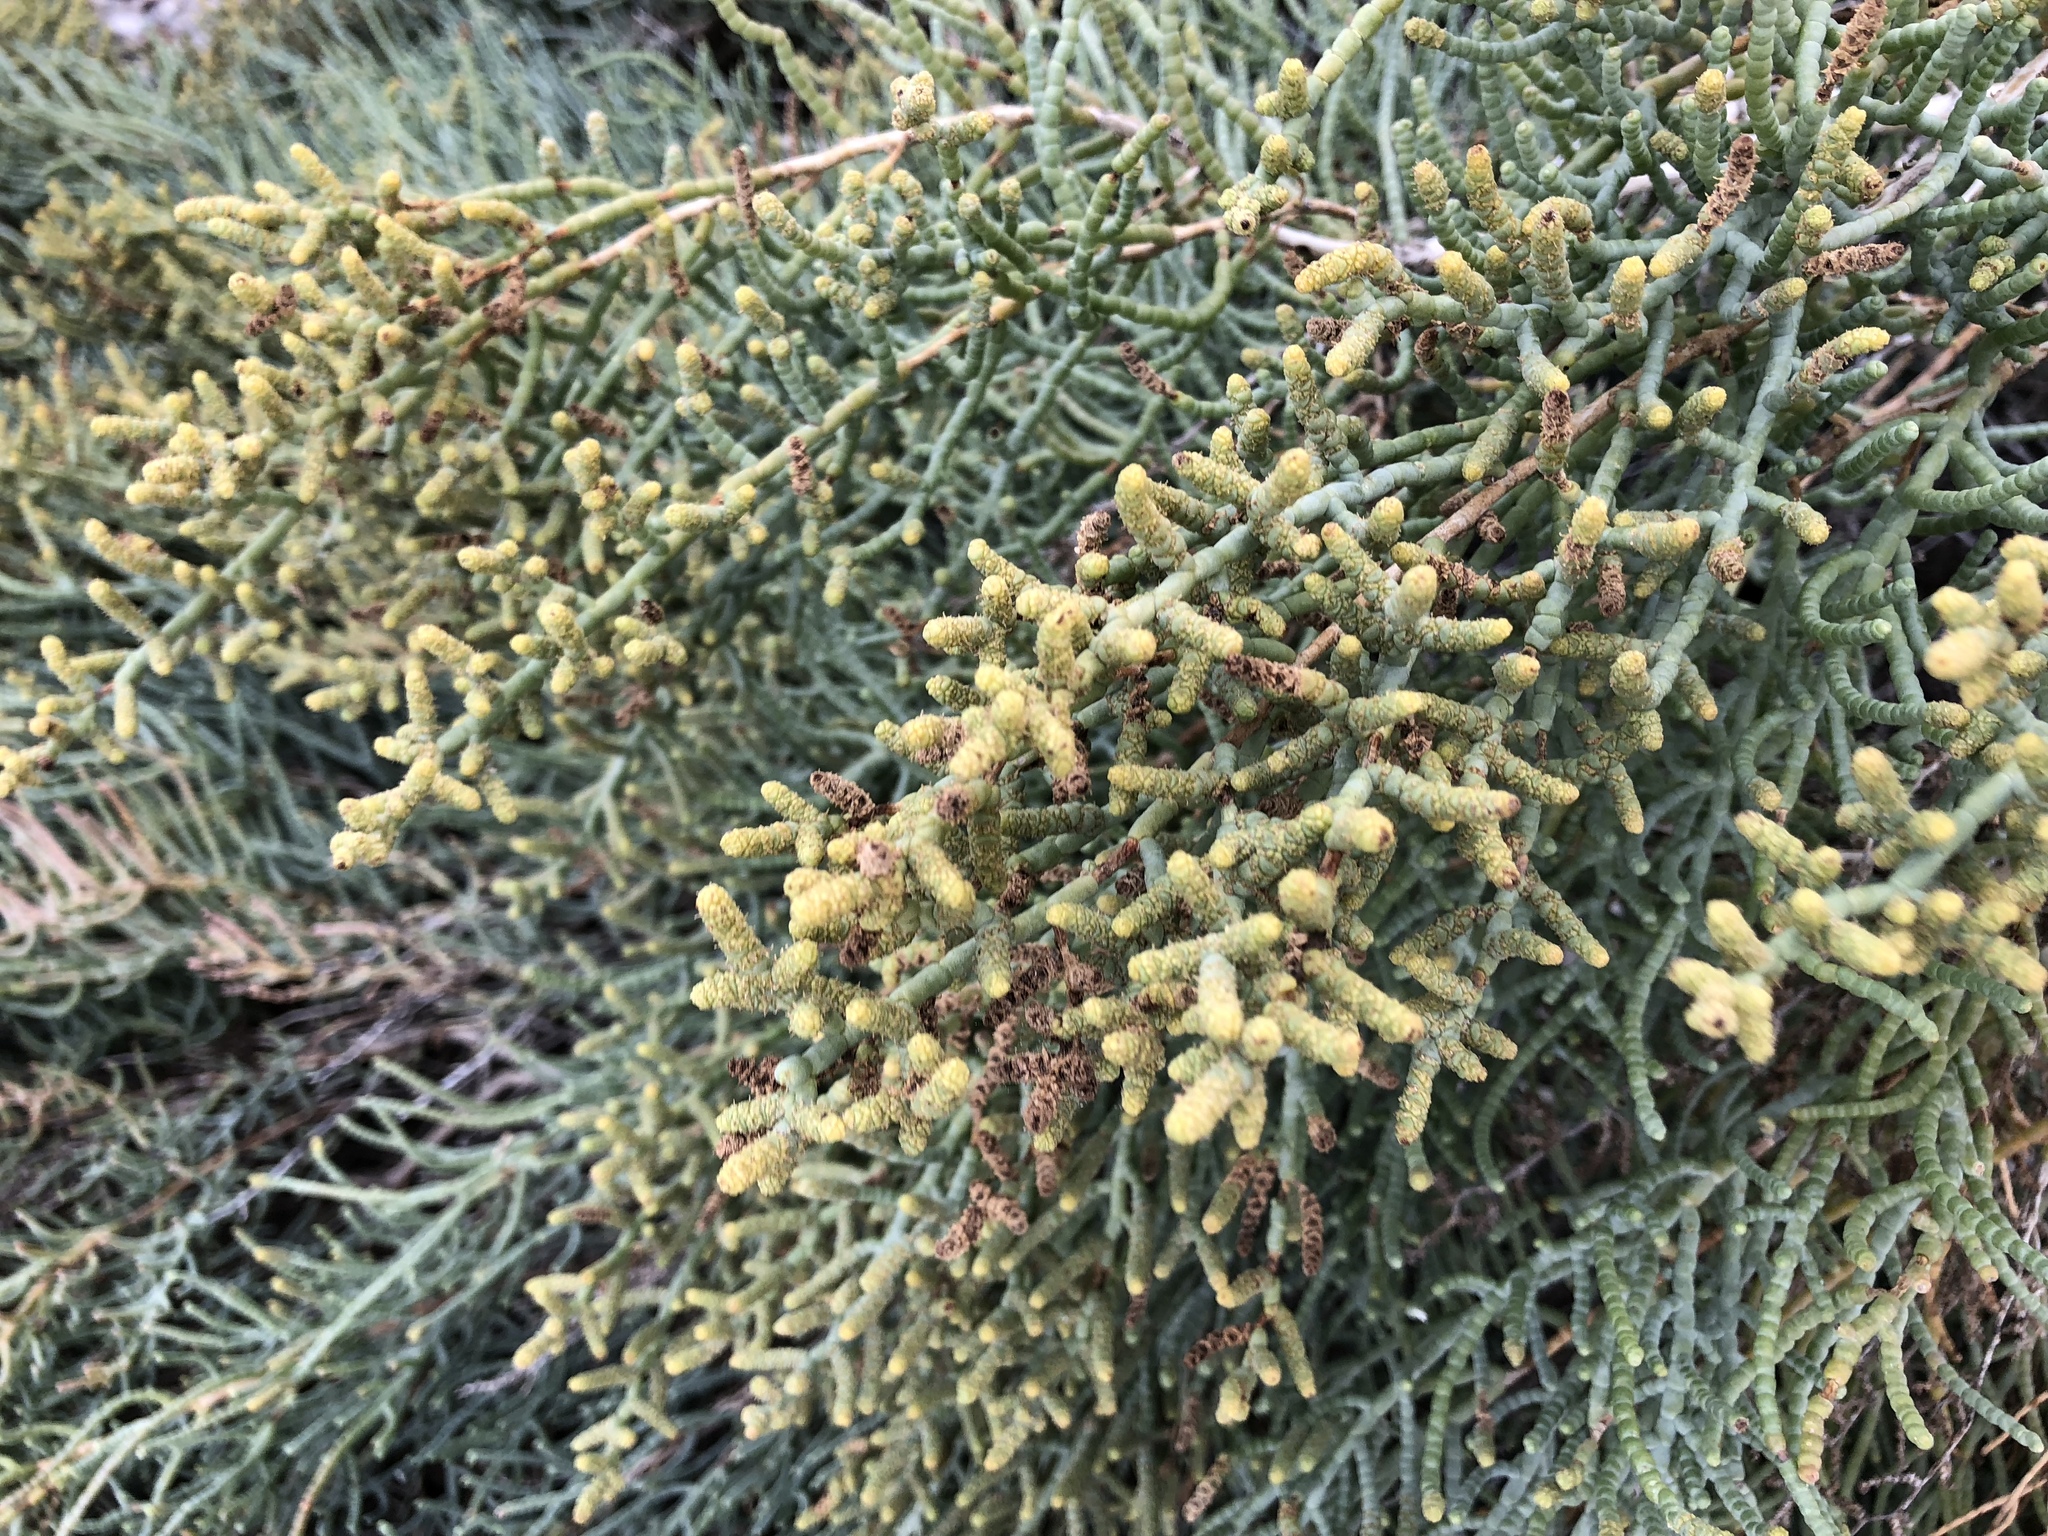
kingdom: Plantae
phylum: Tracheophyta
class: Magnoliopsida
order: Caryophyllales
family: Amaranthaceae
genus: Allenrolfea
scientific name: Allenrolfea occidentalis
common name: Iodine-bush
